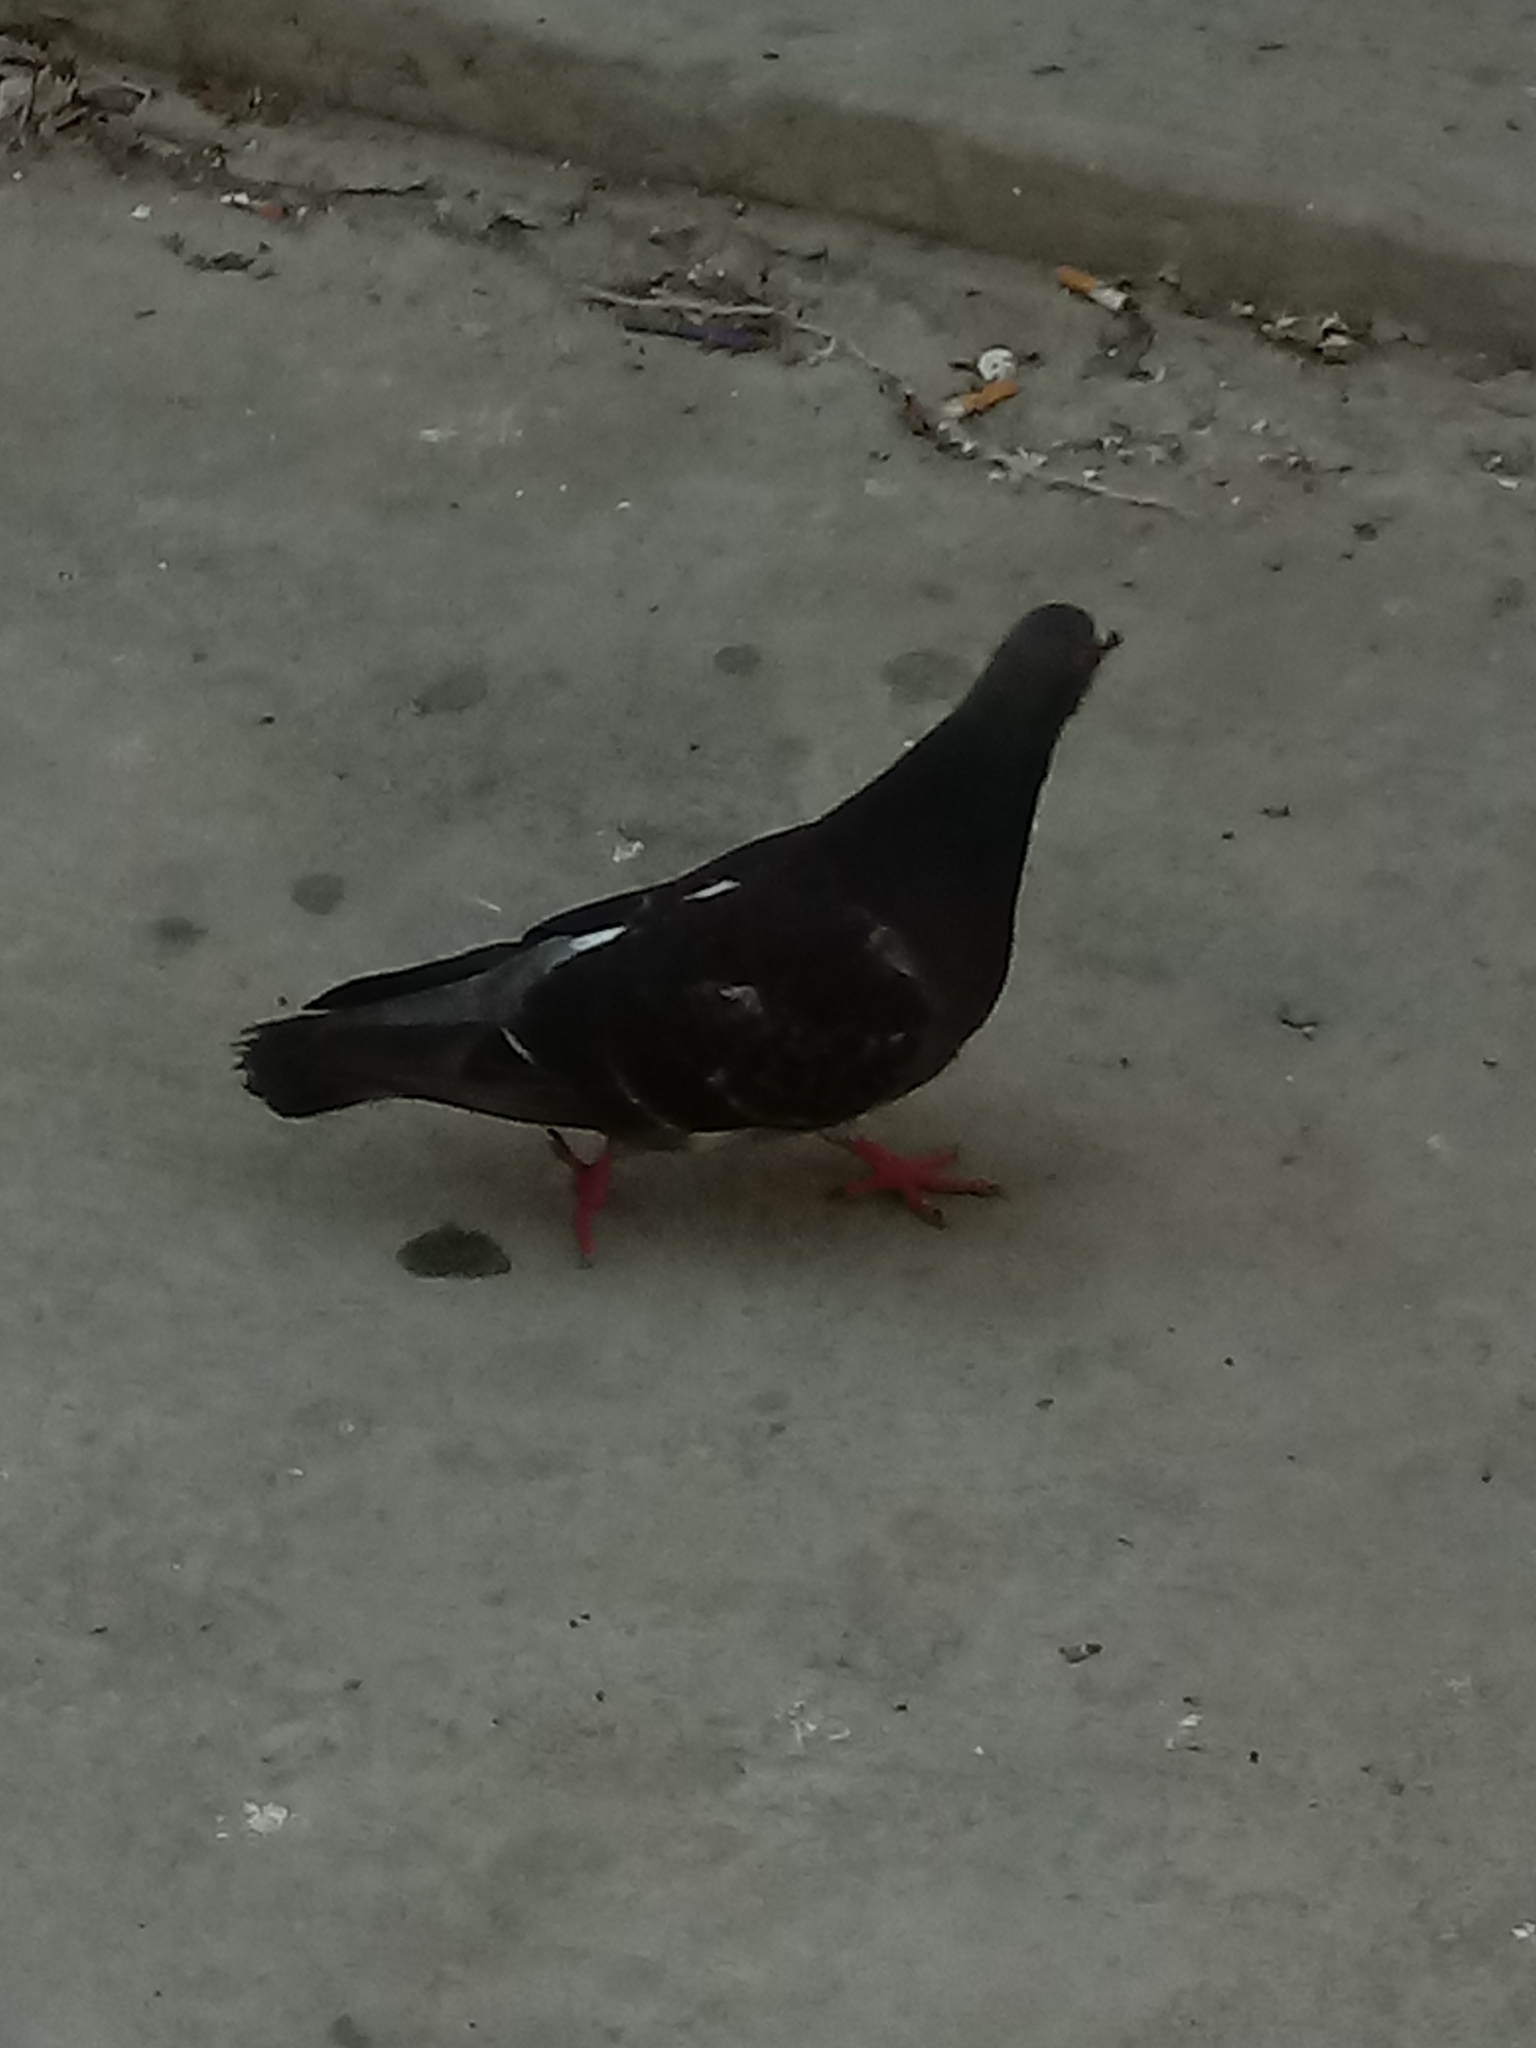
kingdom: Animalia
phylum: Chordata
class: Aves
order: Columbiformes
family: Columbidae
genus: Columba
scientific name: Columba livia
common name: Rock pigeon
